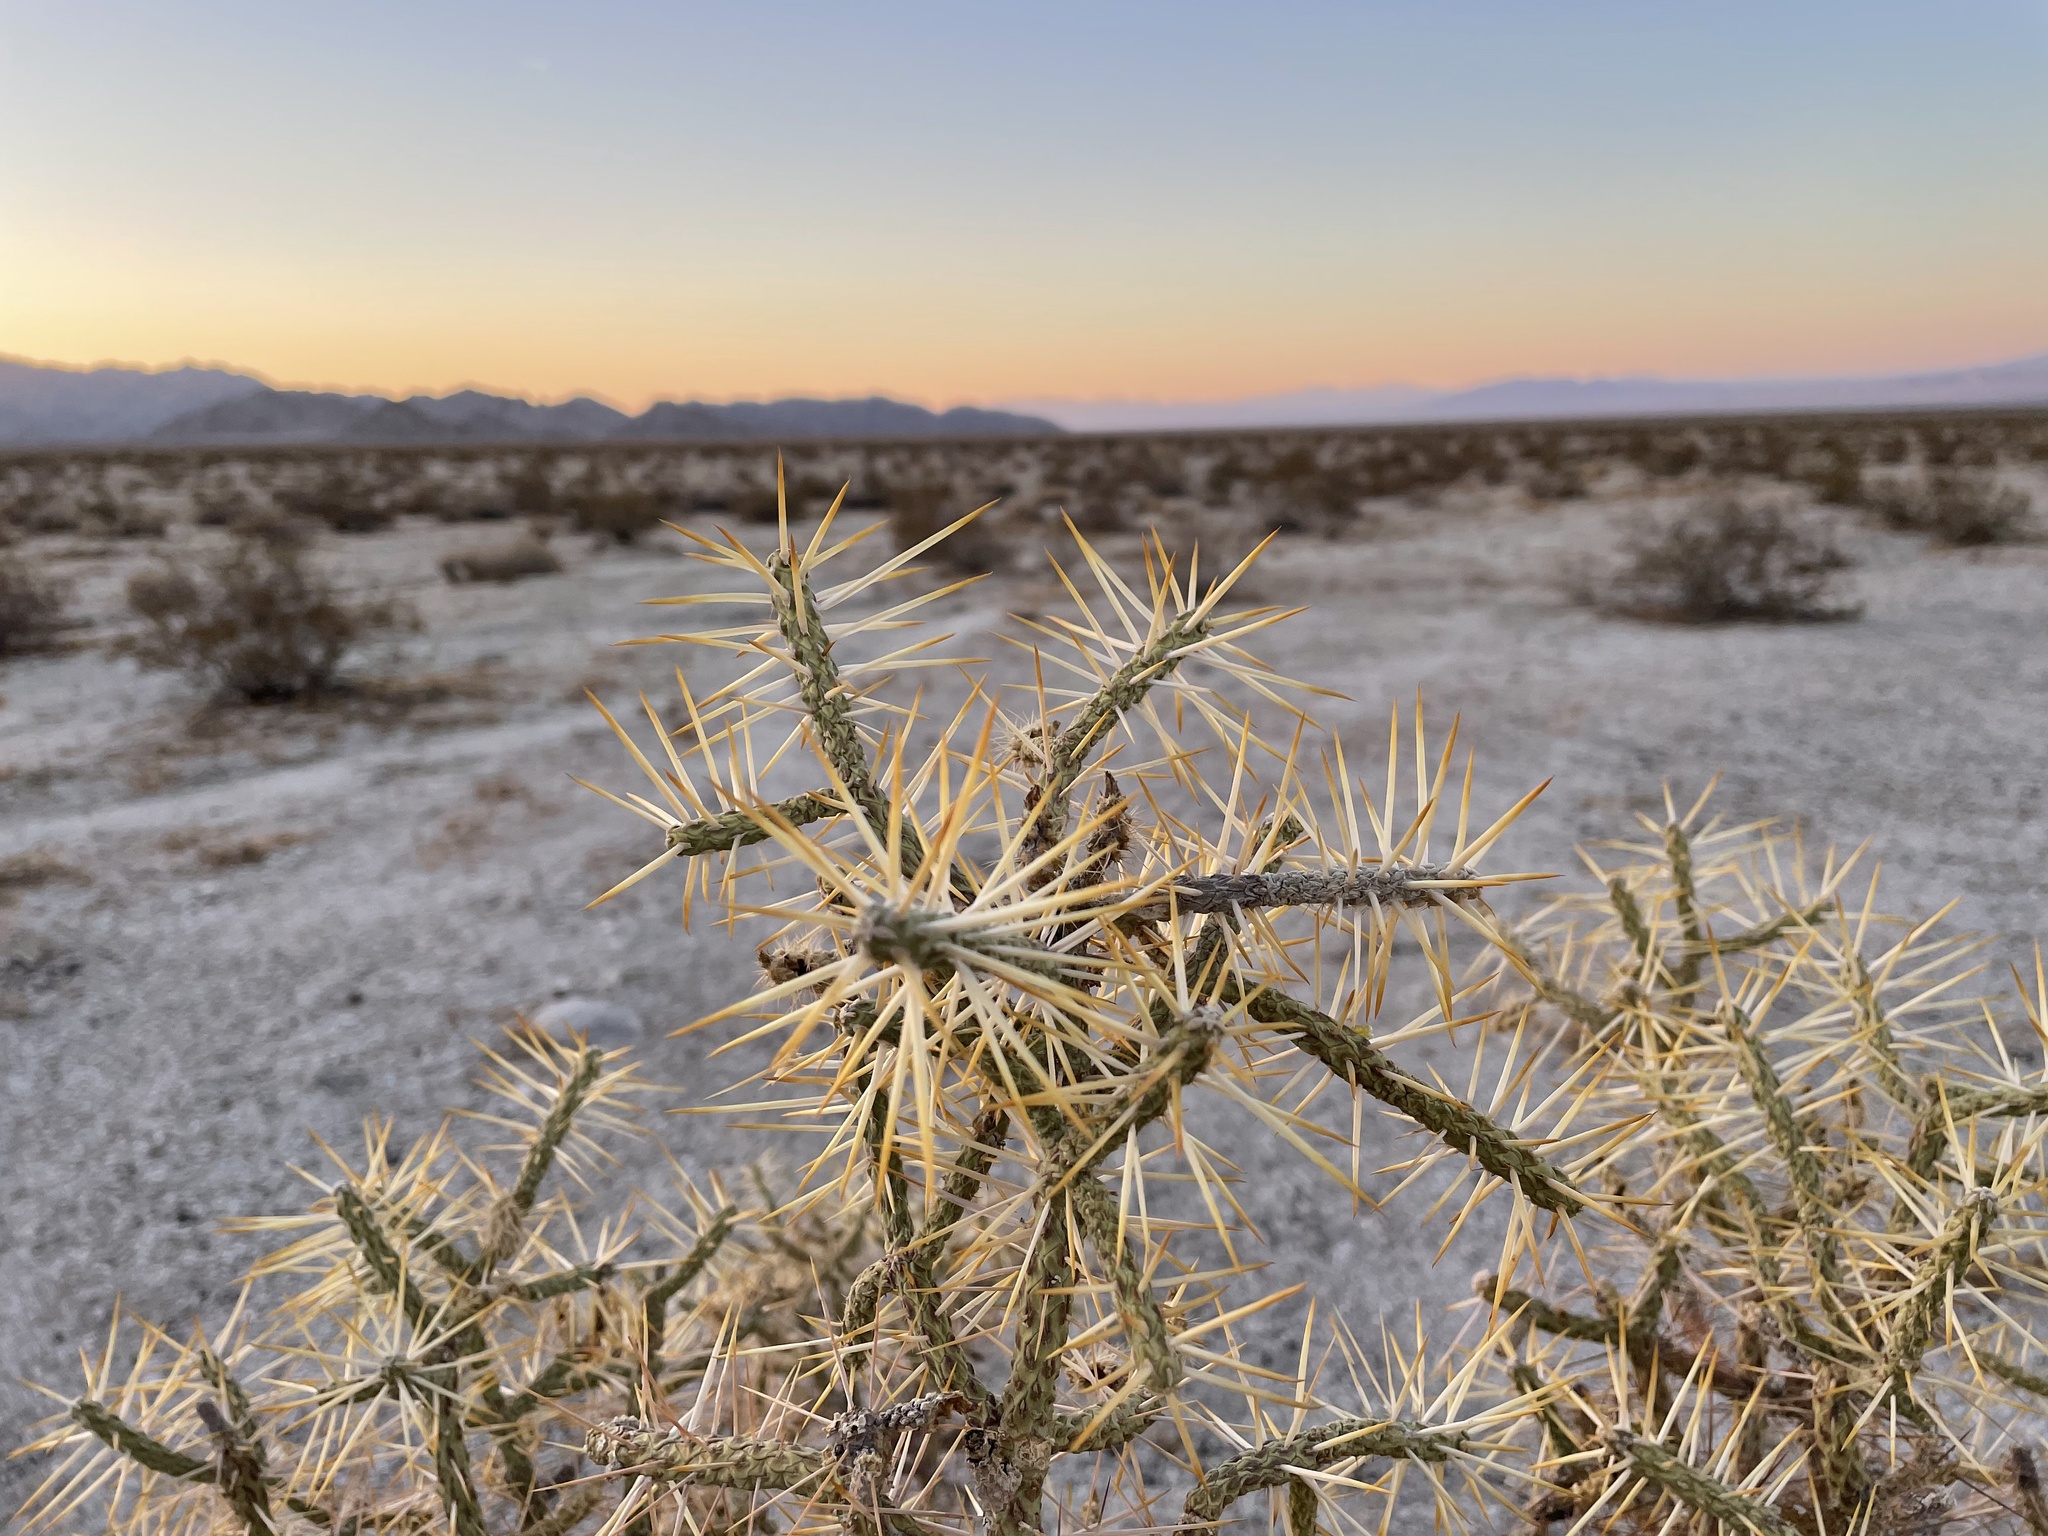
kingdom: Plantae
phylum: Tracheophyta
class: Magnoliopsida
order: Caryophyllales
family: Cactaceae
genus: Cylindropuntia
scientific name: Cylindropuntia ramosissima
